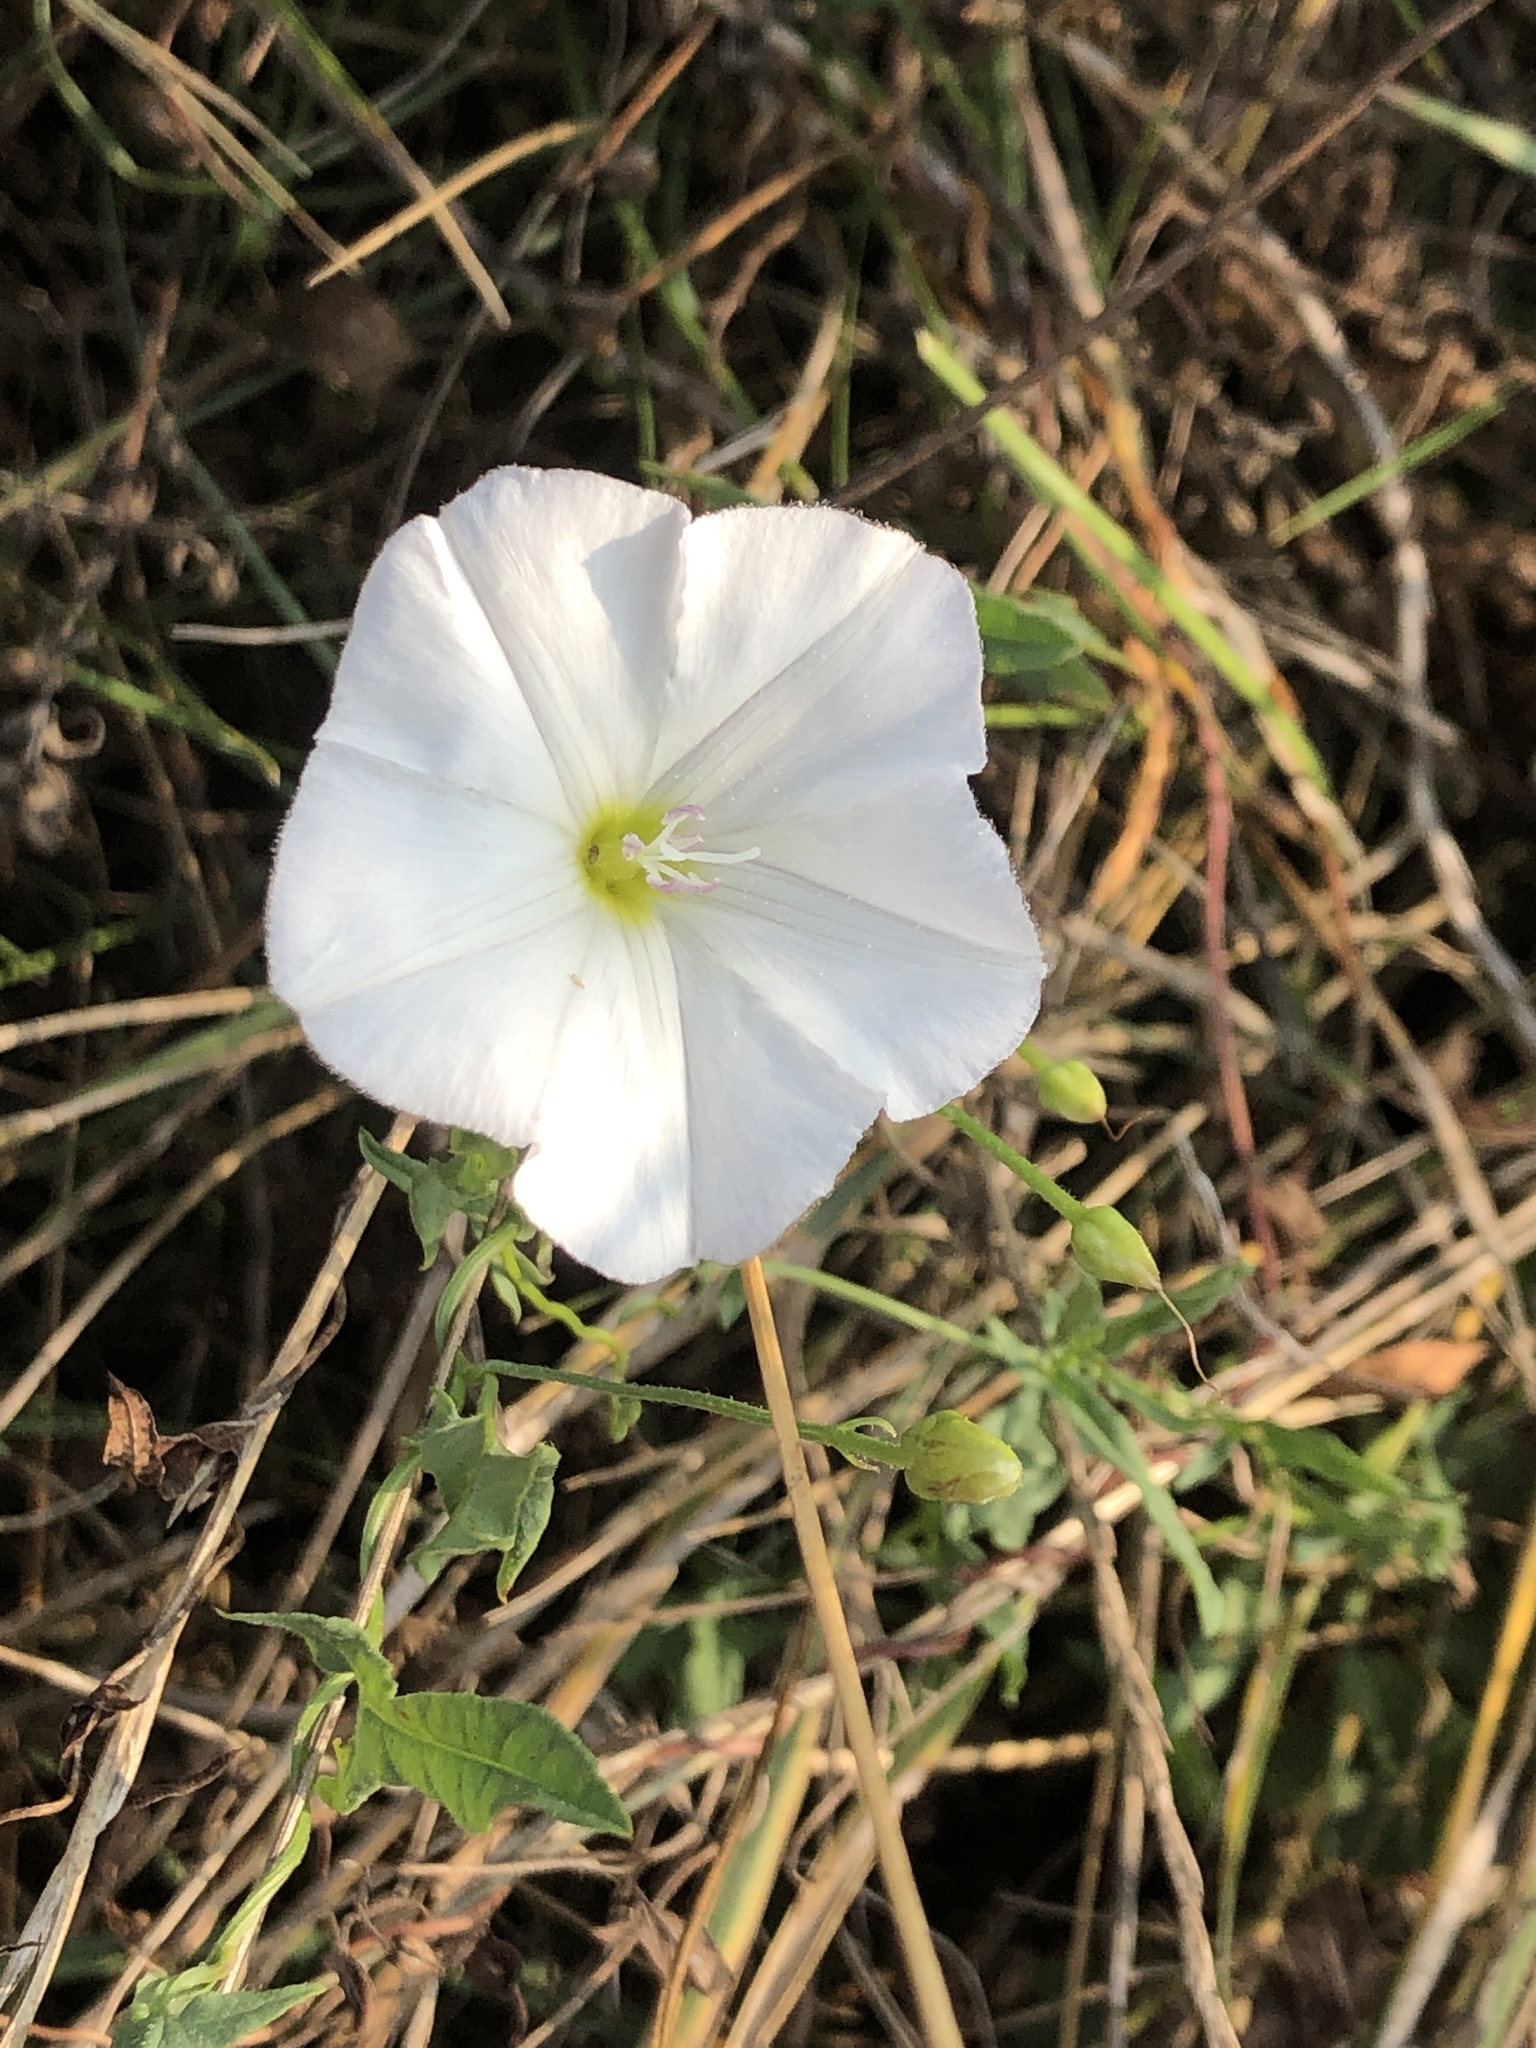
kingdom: Plantae
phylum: Tracheophyta
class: Magnoliopsida
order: Solanales
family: Convolvulaceae
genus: Convolvulus
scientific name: Convolvulus arvensis
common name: Field bindweed
